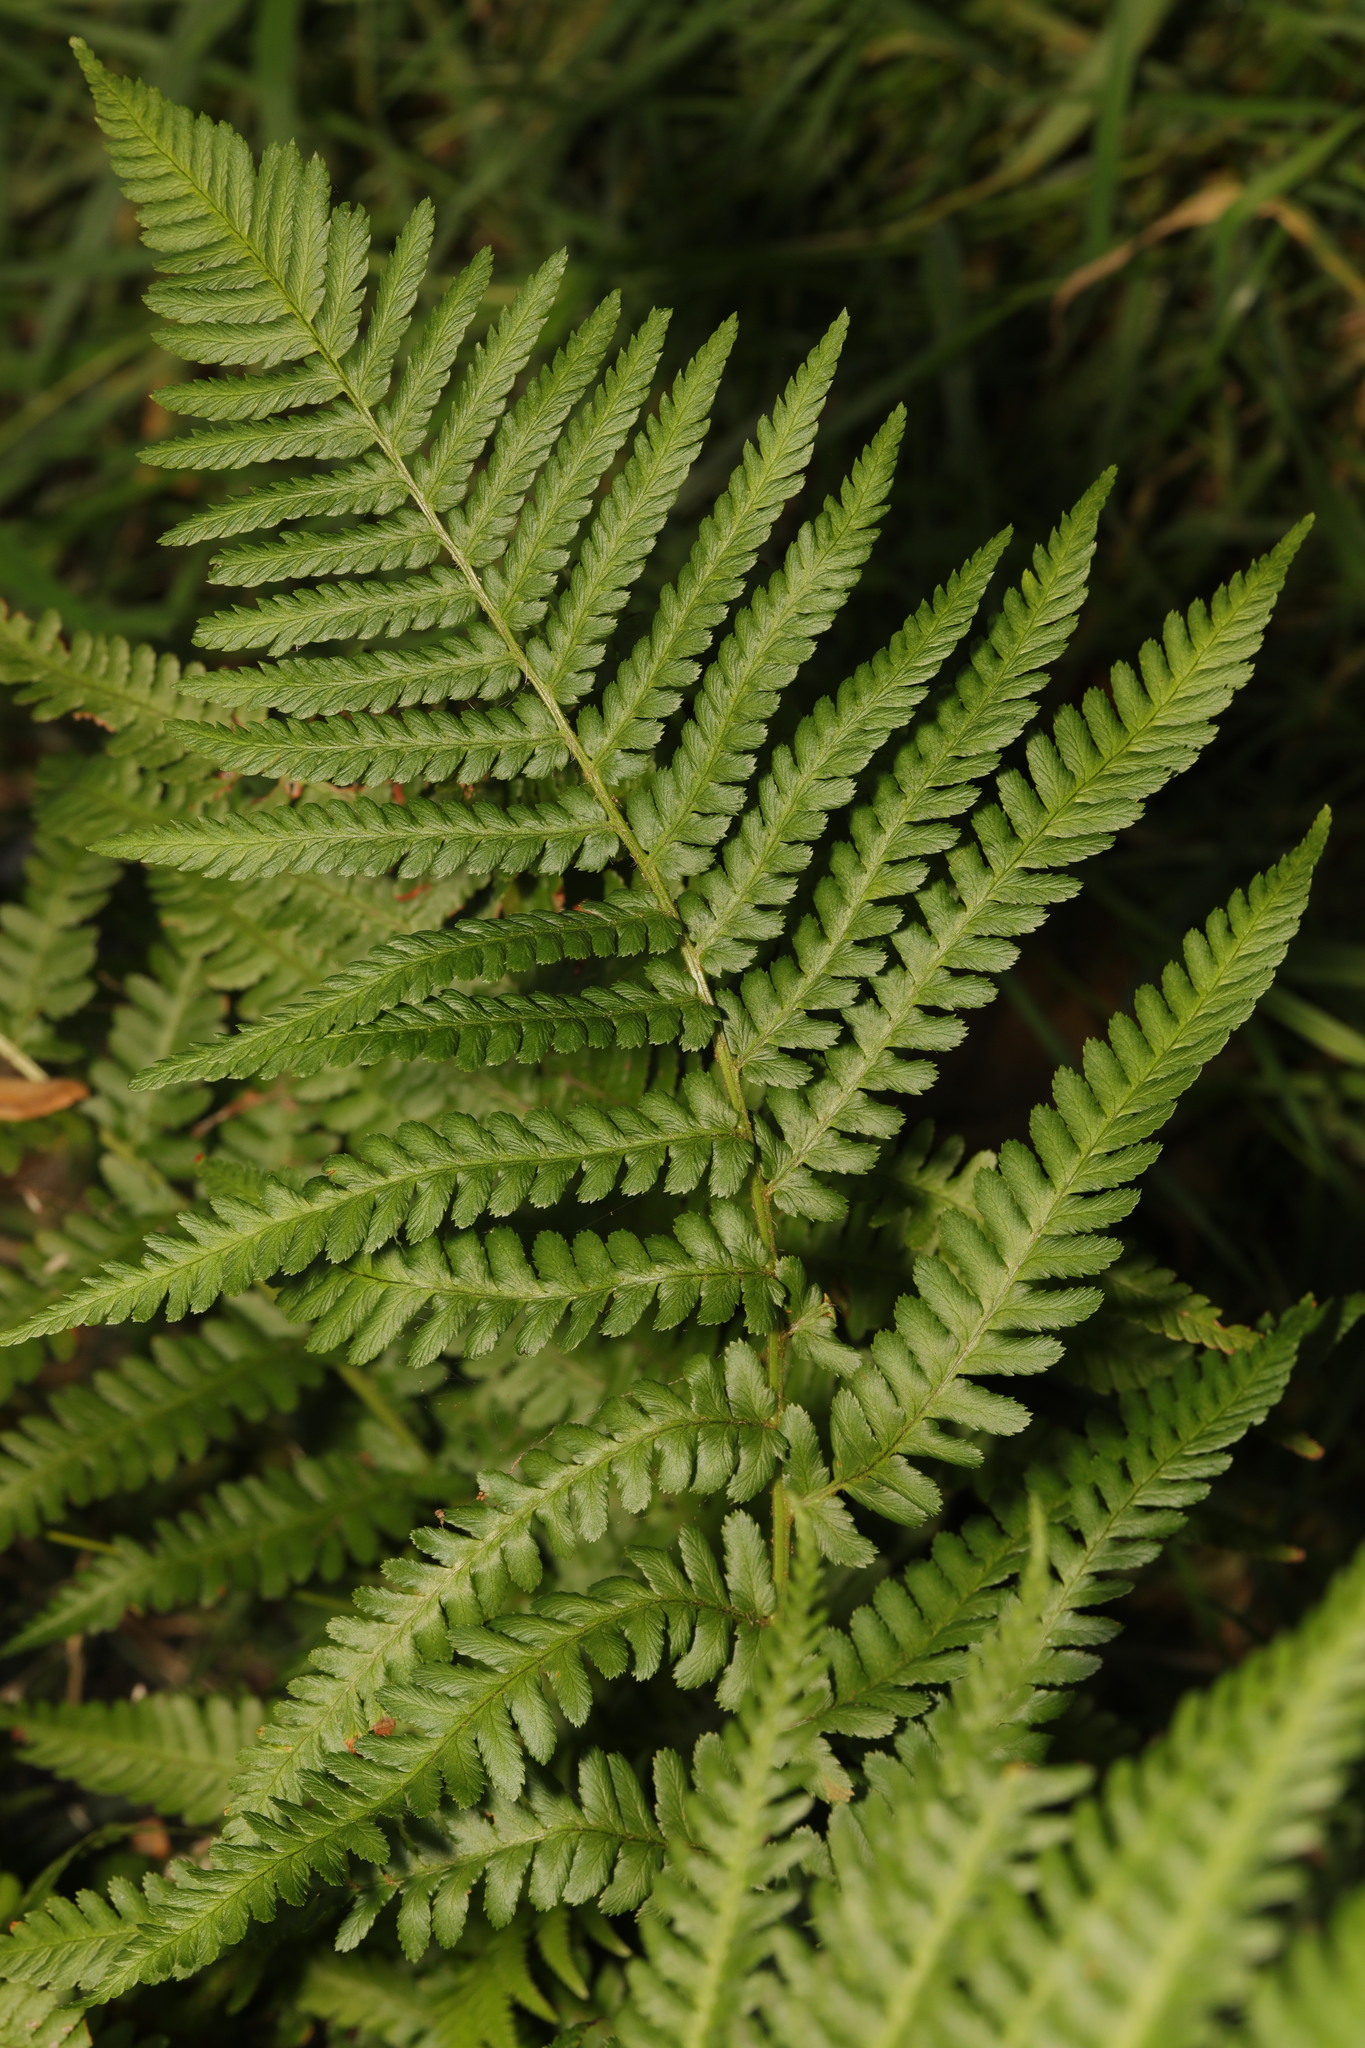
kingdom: Plantae
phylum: Tracheophyta
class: Polypodiopsida
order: Polypodiales
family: Dryopteridaceae
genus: Dryopteris
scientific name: Dryopteris filix-mas
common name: Male fern
